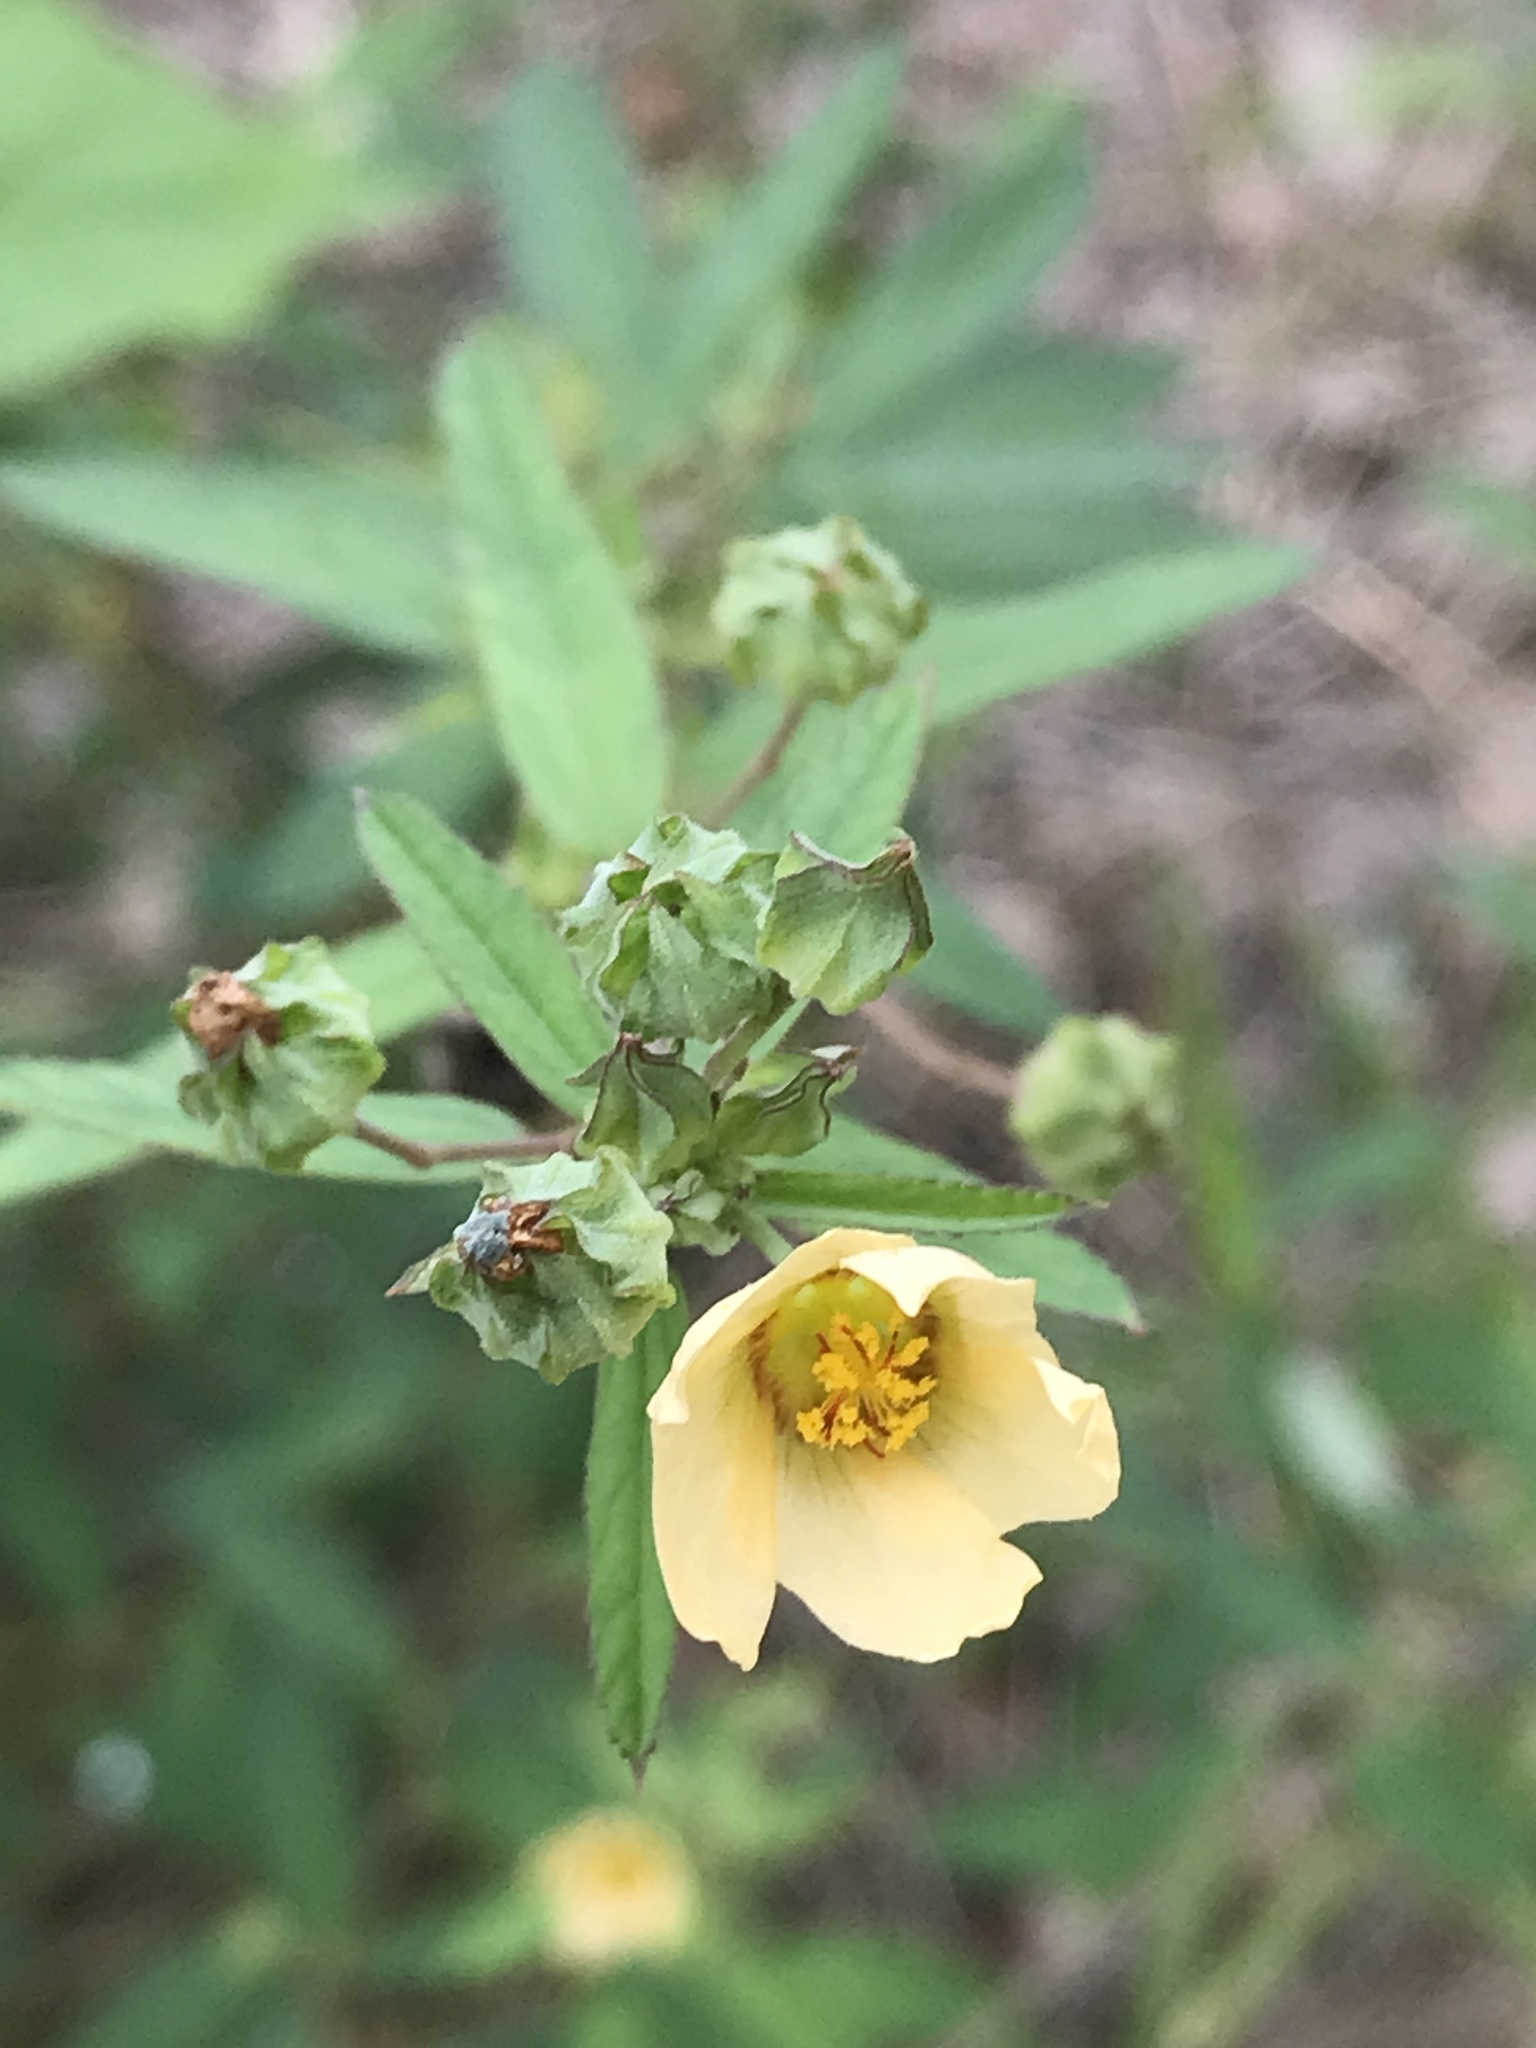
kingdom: Plantae
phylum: Tracheophyta
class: Magnoliopsida
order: Malvales
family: Malvaceae
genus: Sida
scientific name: Sida rhombifolia
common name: Queensland-hemp
